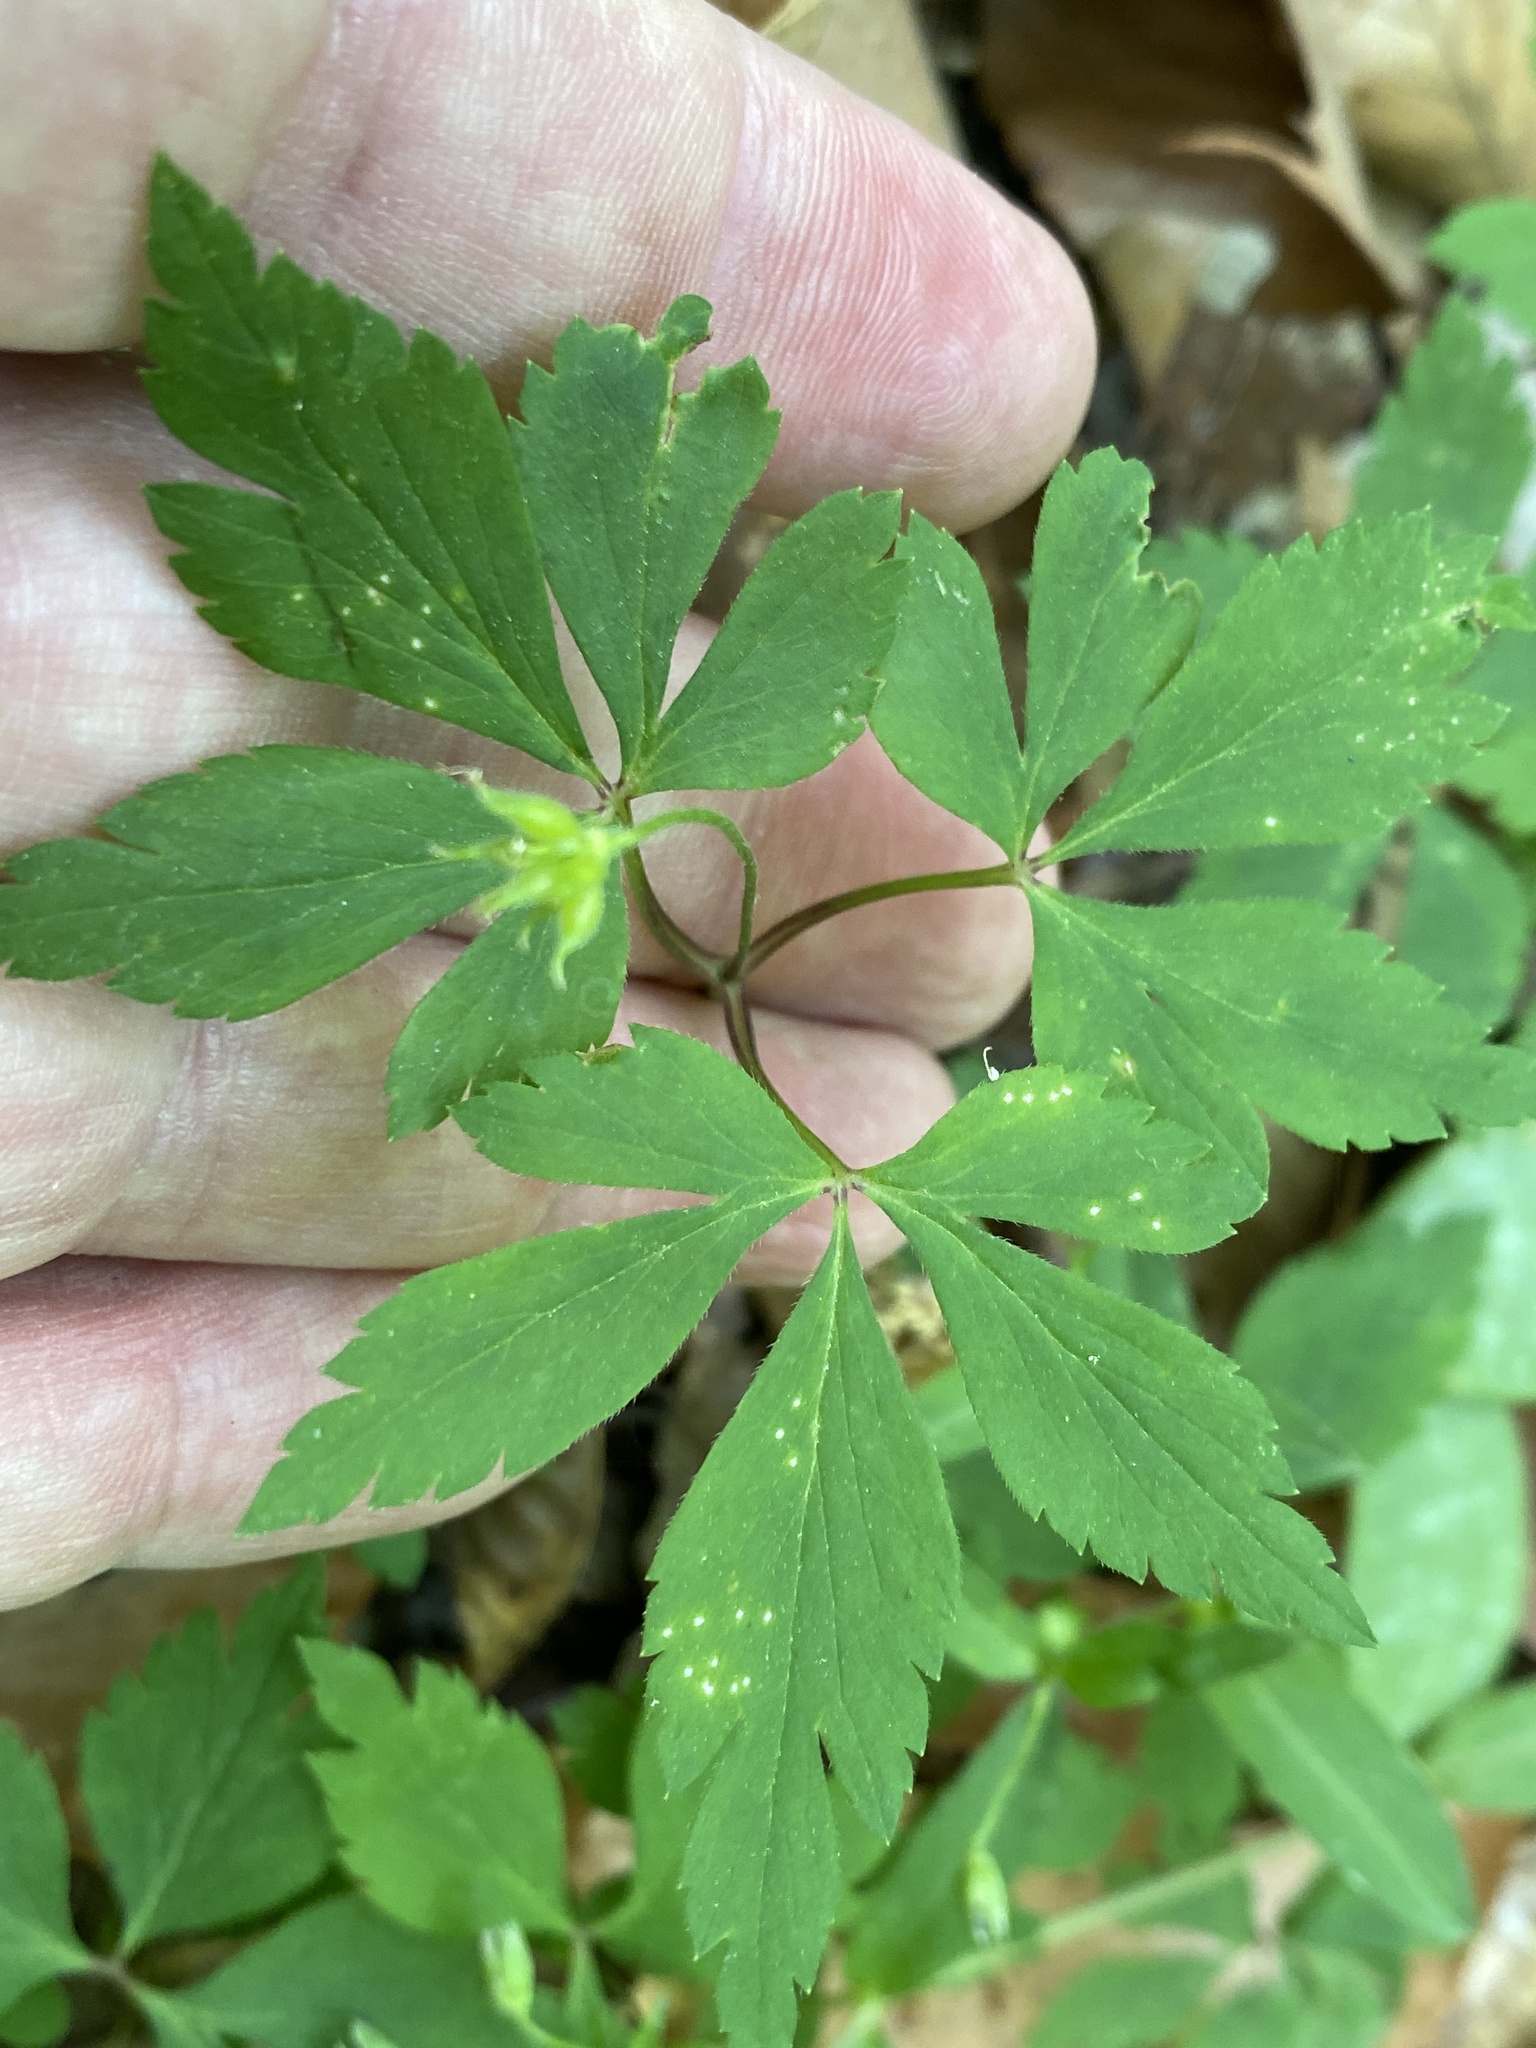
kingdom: Plantae
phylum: Tracheophyta
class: Magnoliopsida
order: Ranunculales
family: Ranunculaceae
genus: Anemone
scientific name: Anemone quinquefolia
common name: Wood anemone
